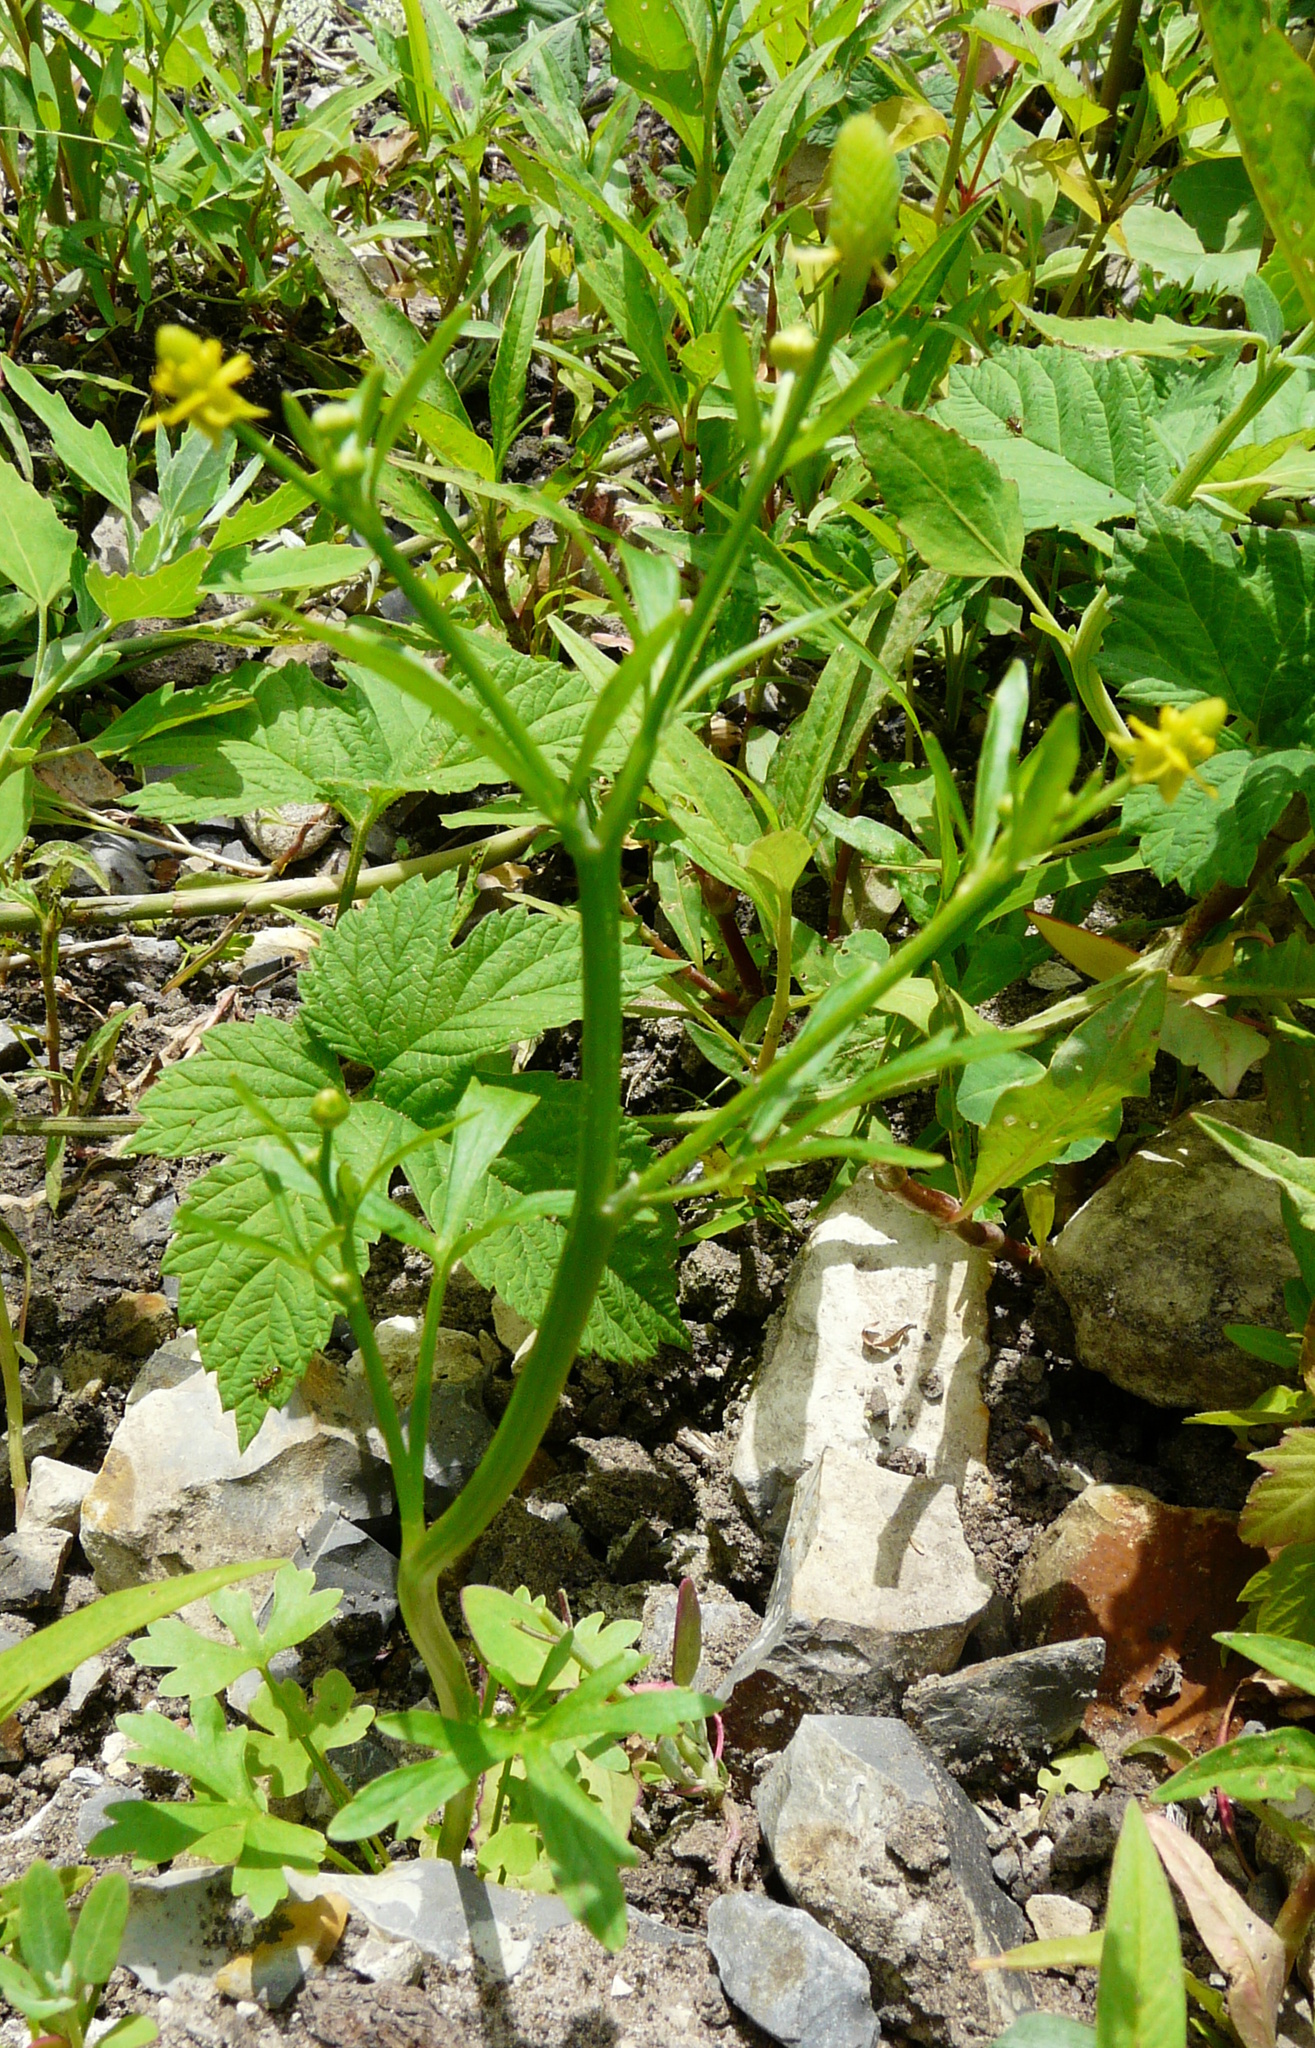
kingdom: Plantae
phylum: Tracheophyta
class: Magnoliopsida
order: Ranunculales
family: Ranunculaceae
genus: Ranunculus
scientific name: Ranunculus sceleratus
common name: Celery-leaved buttercup
